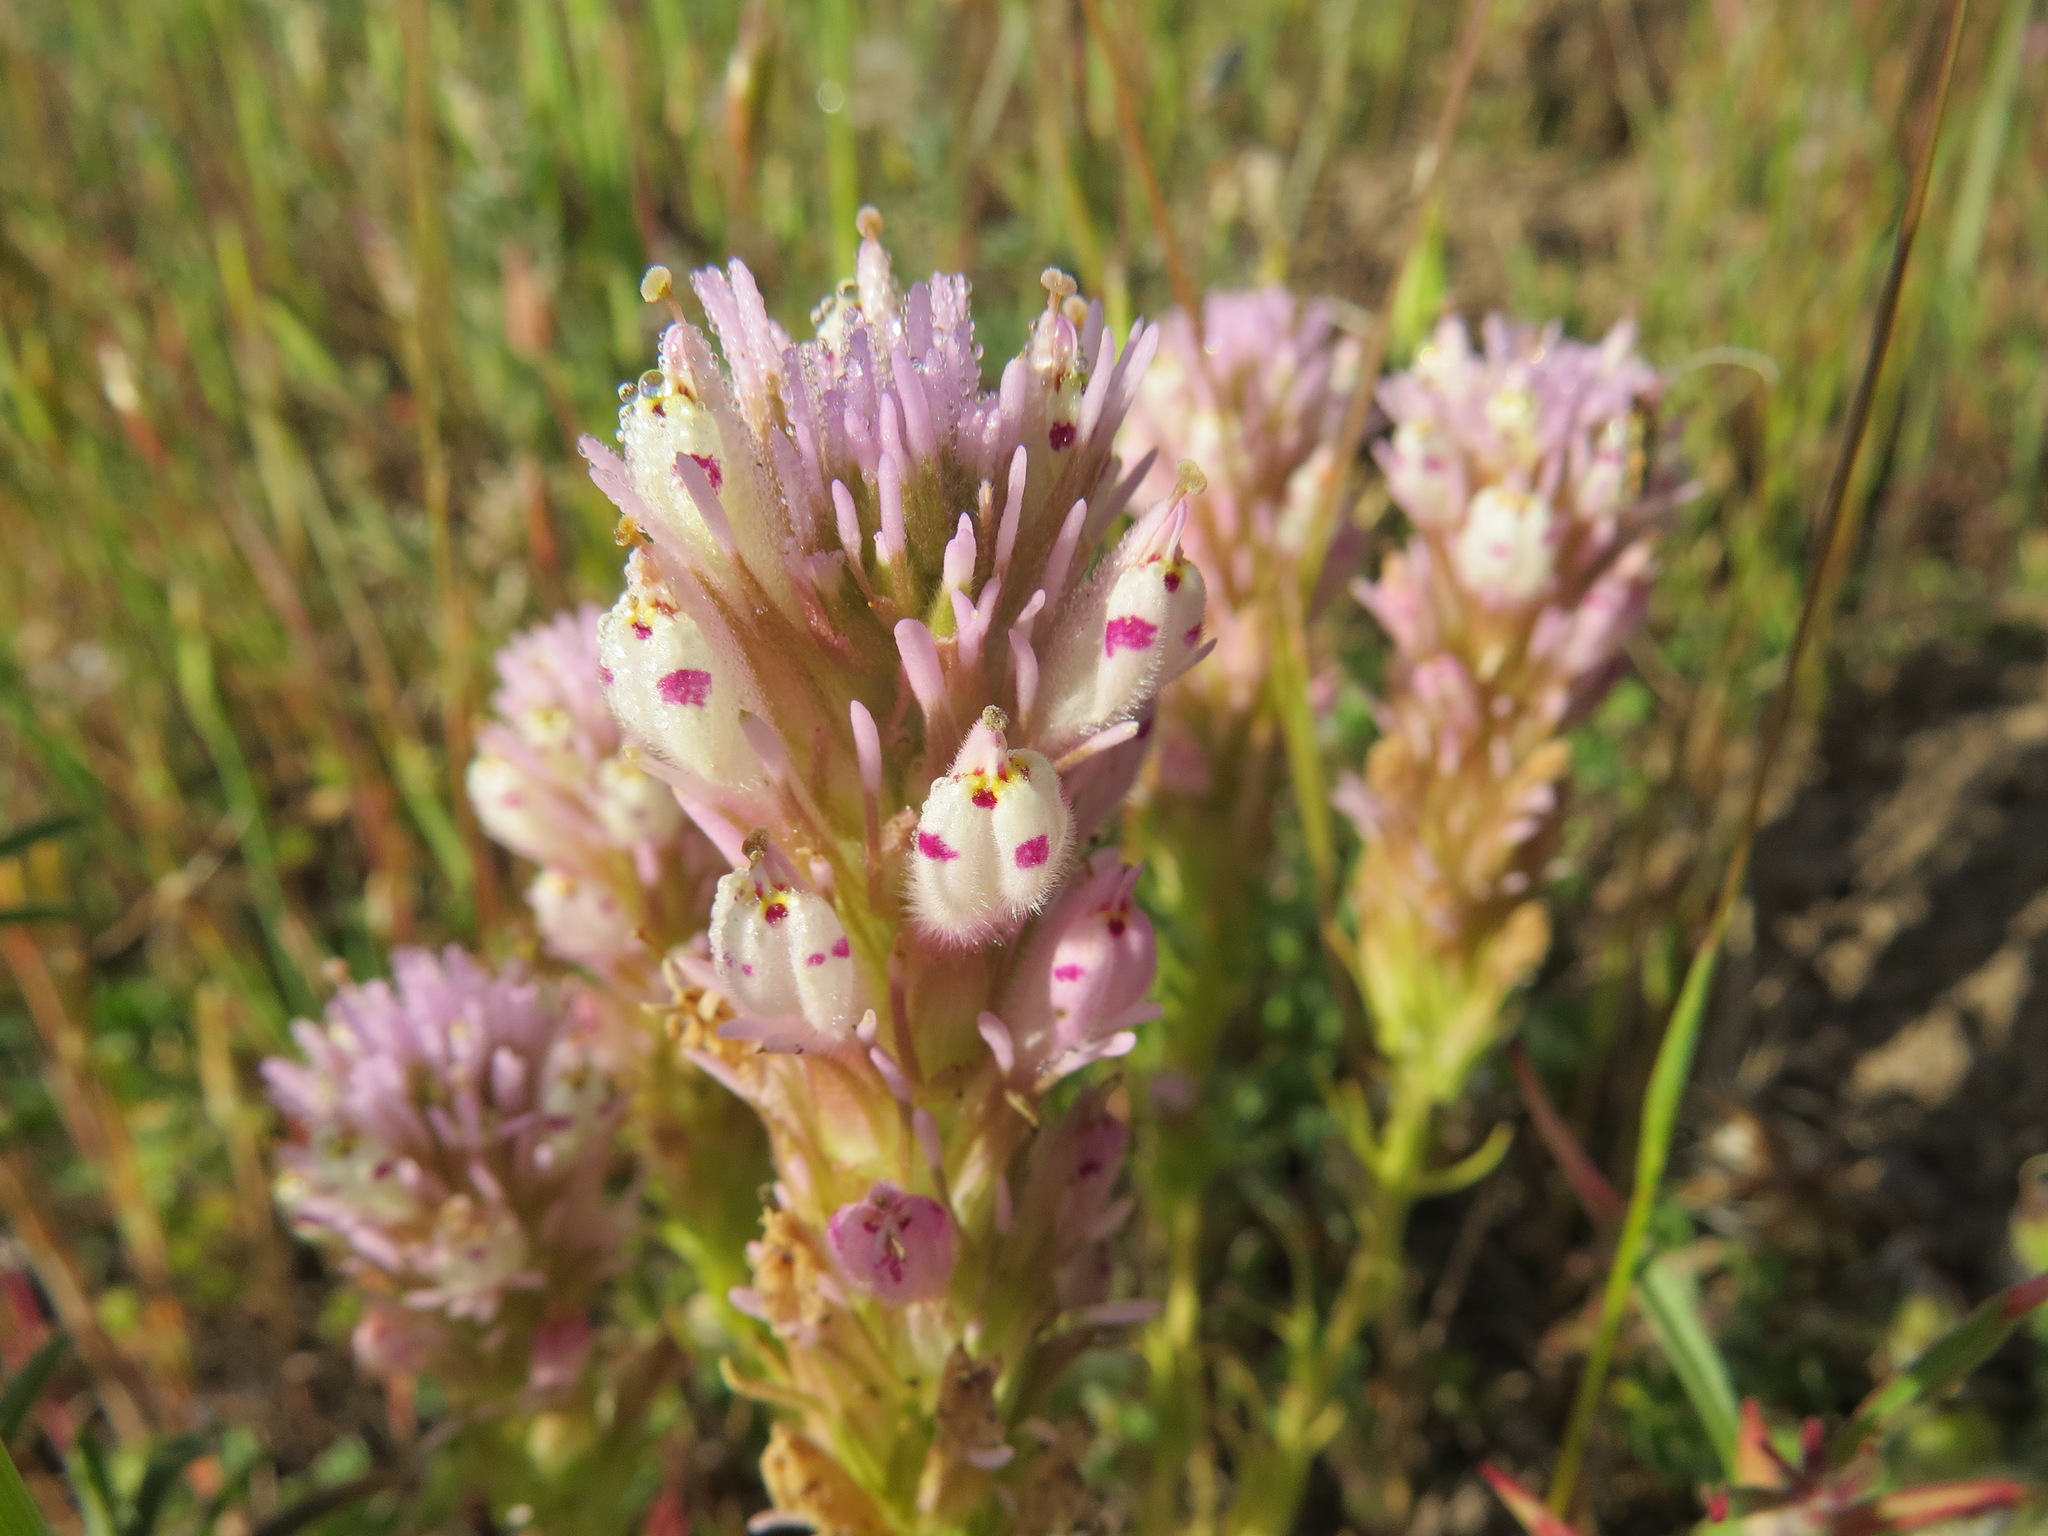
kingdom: Plantae
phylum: Tracheophyta
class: Magnoliopsida
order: Lamiales
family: Orobanchaceae
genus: Castilleja
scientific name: Castilleja densiflora
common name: Dense-flower indian paintbrush
